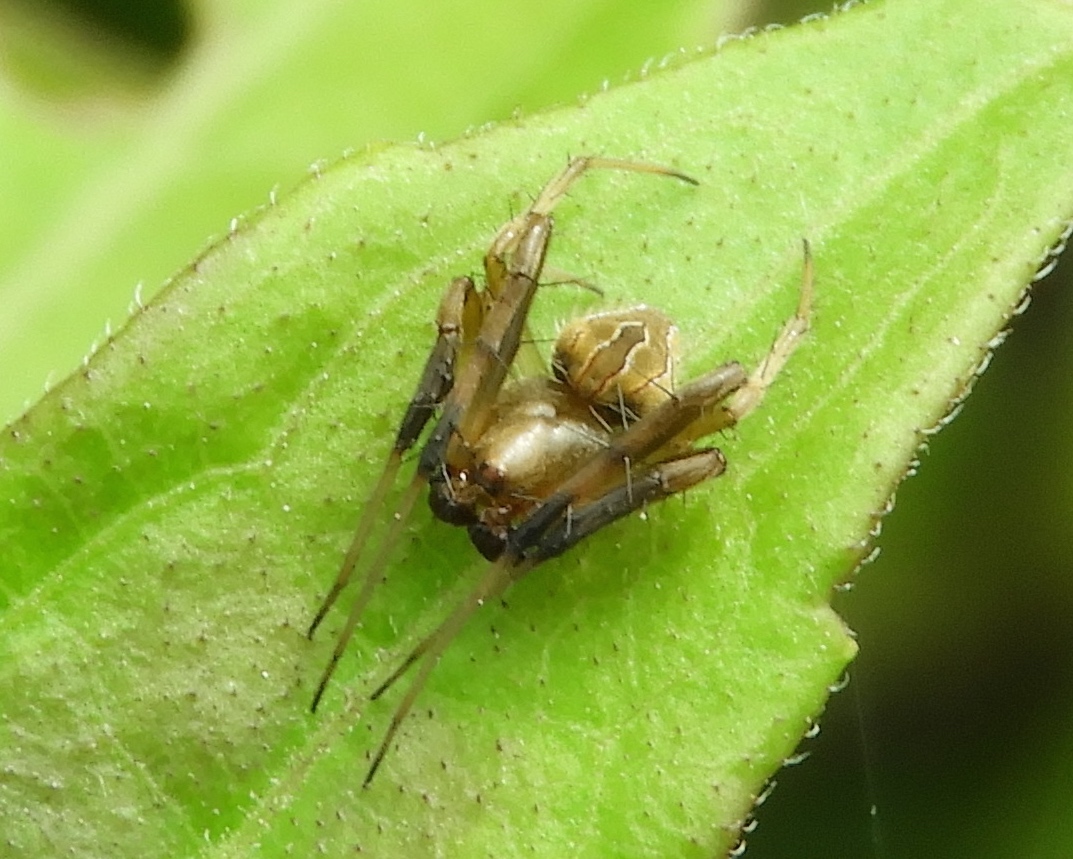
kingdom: Animalia
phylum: Arthropoda
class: Arachnida
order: Araneae
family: Araneidae
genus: Acacesia
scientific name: Acacesia
